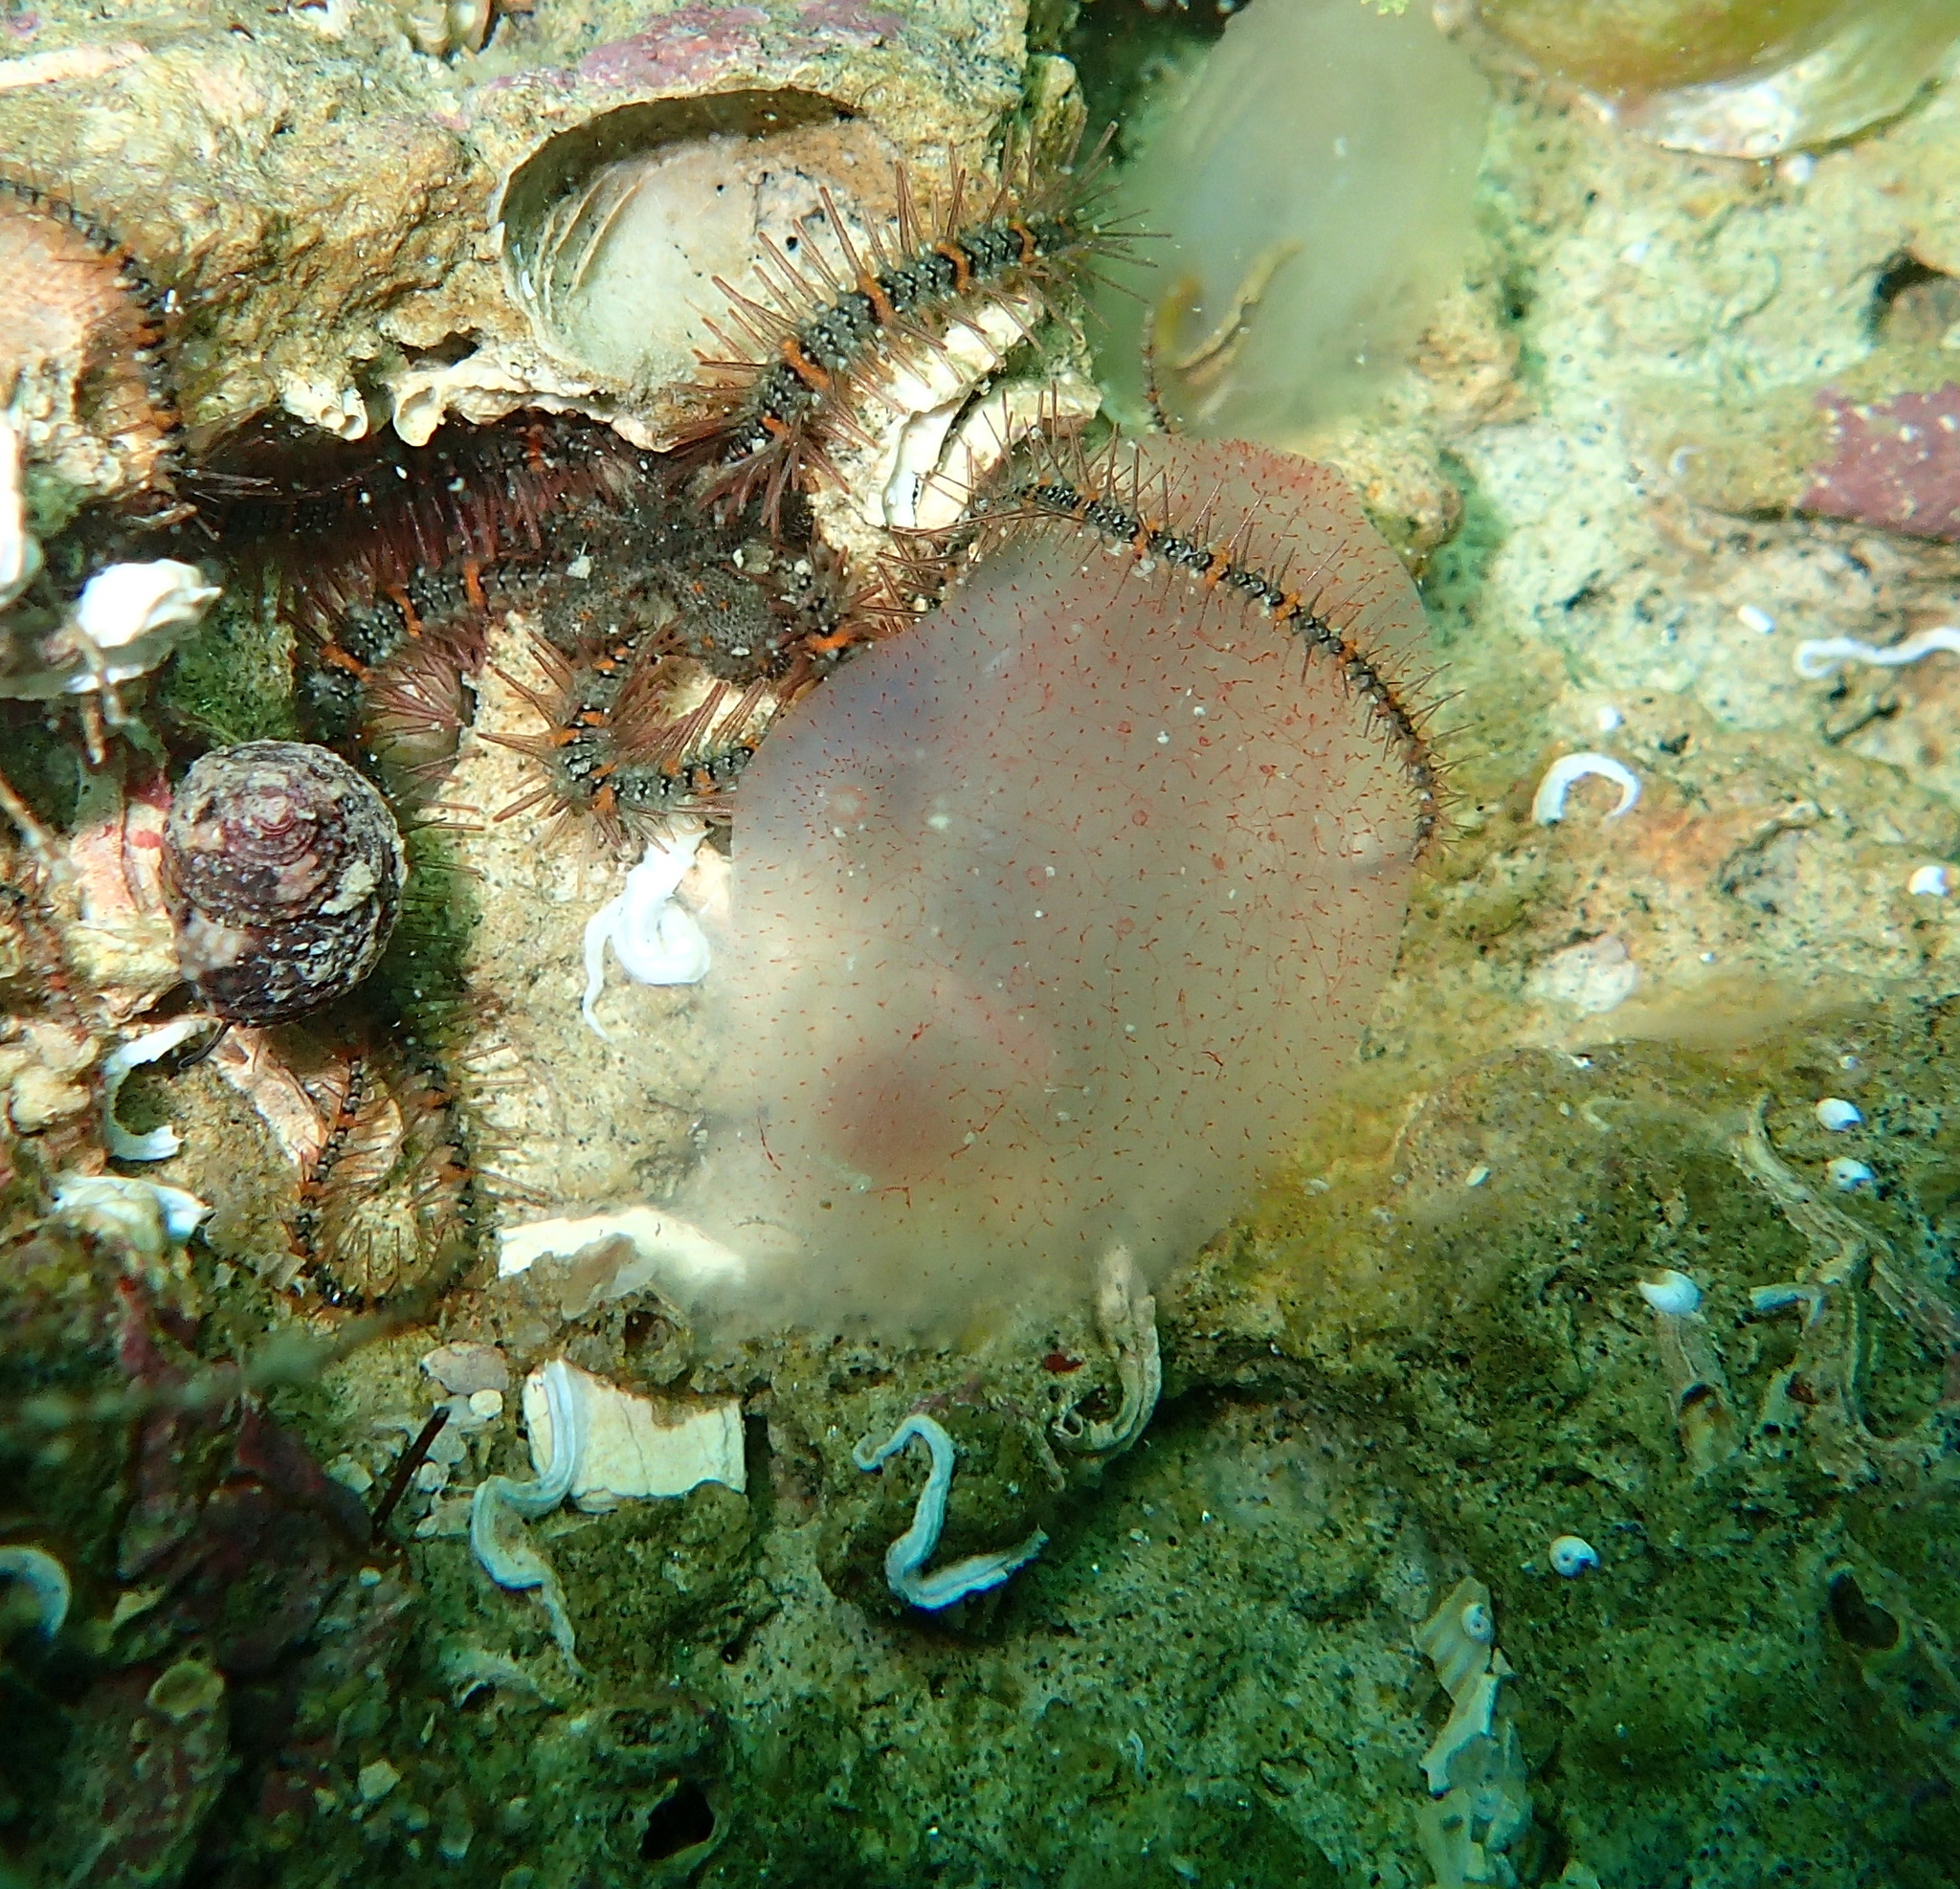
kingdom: Animalia
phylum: Chordata
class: Ascidiacea
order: Phlebobranchia
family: Ascidiidae
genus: Ascidia
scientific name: Ascidia mentula
